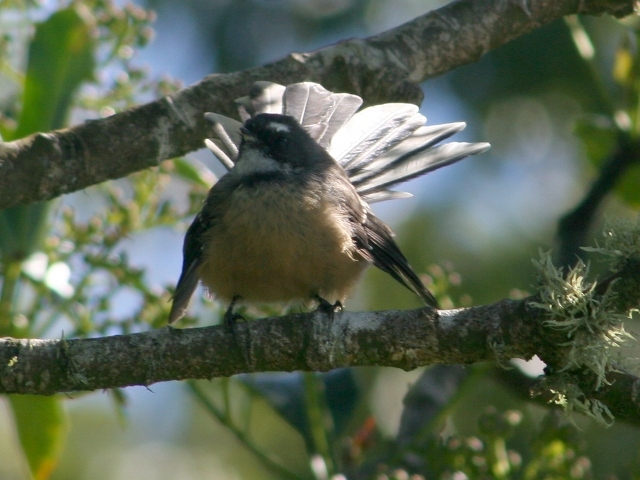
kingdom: Animalia
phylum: Chordata
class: Aves
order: Passeriformes
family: Rhipiduridae
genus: Rhipidura
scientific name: Rhipidura fuliginosa
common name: New zealand fantail
